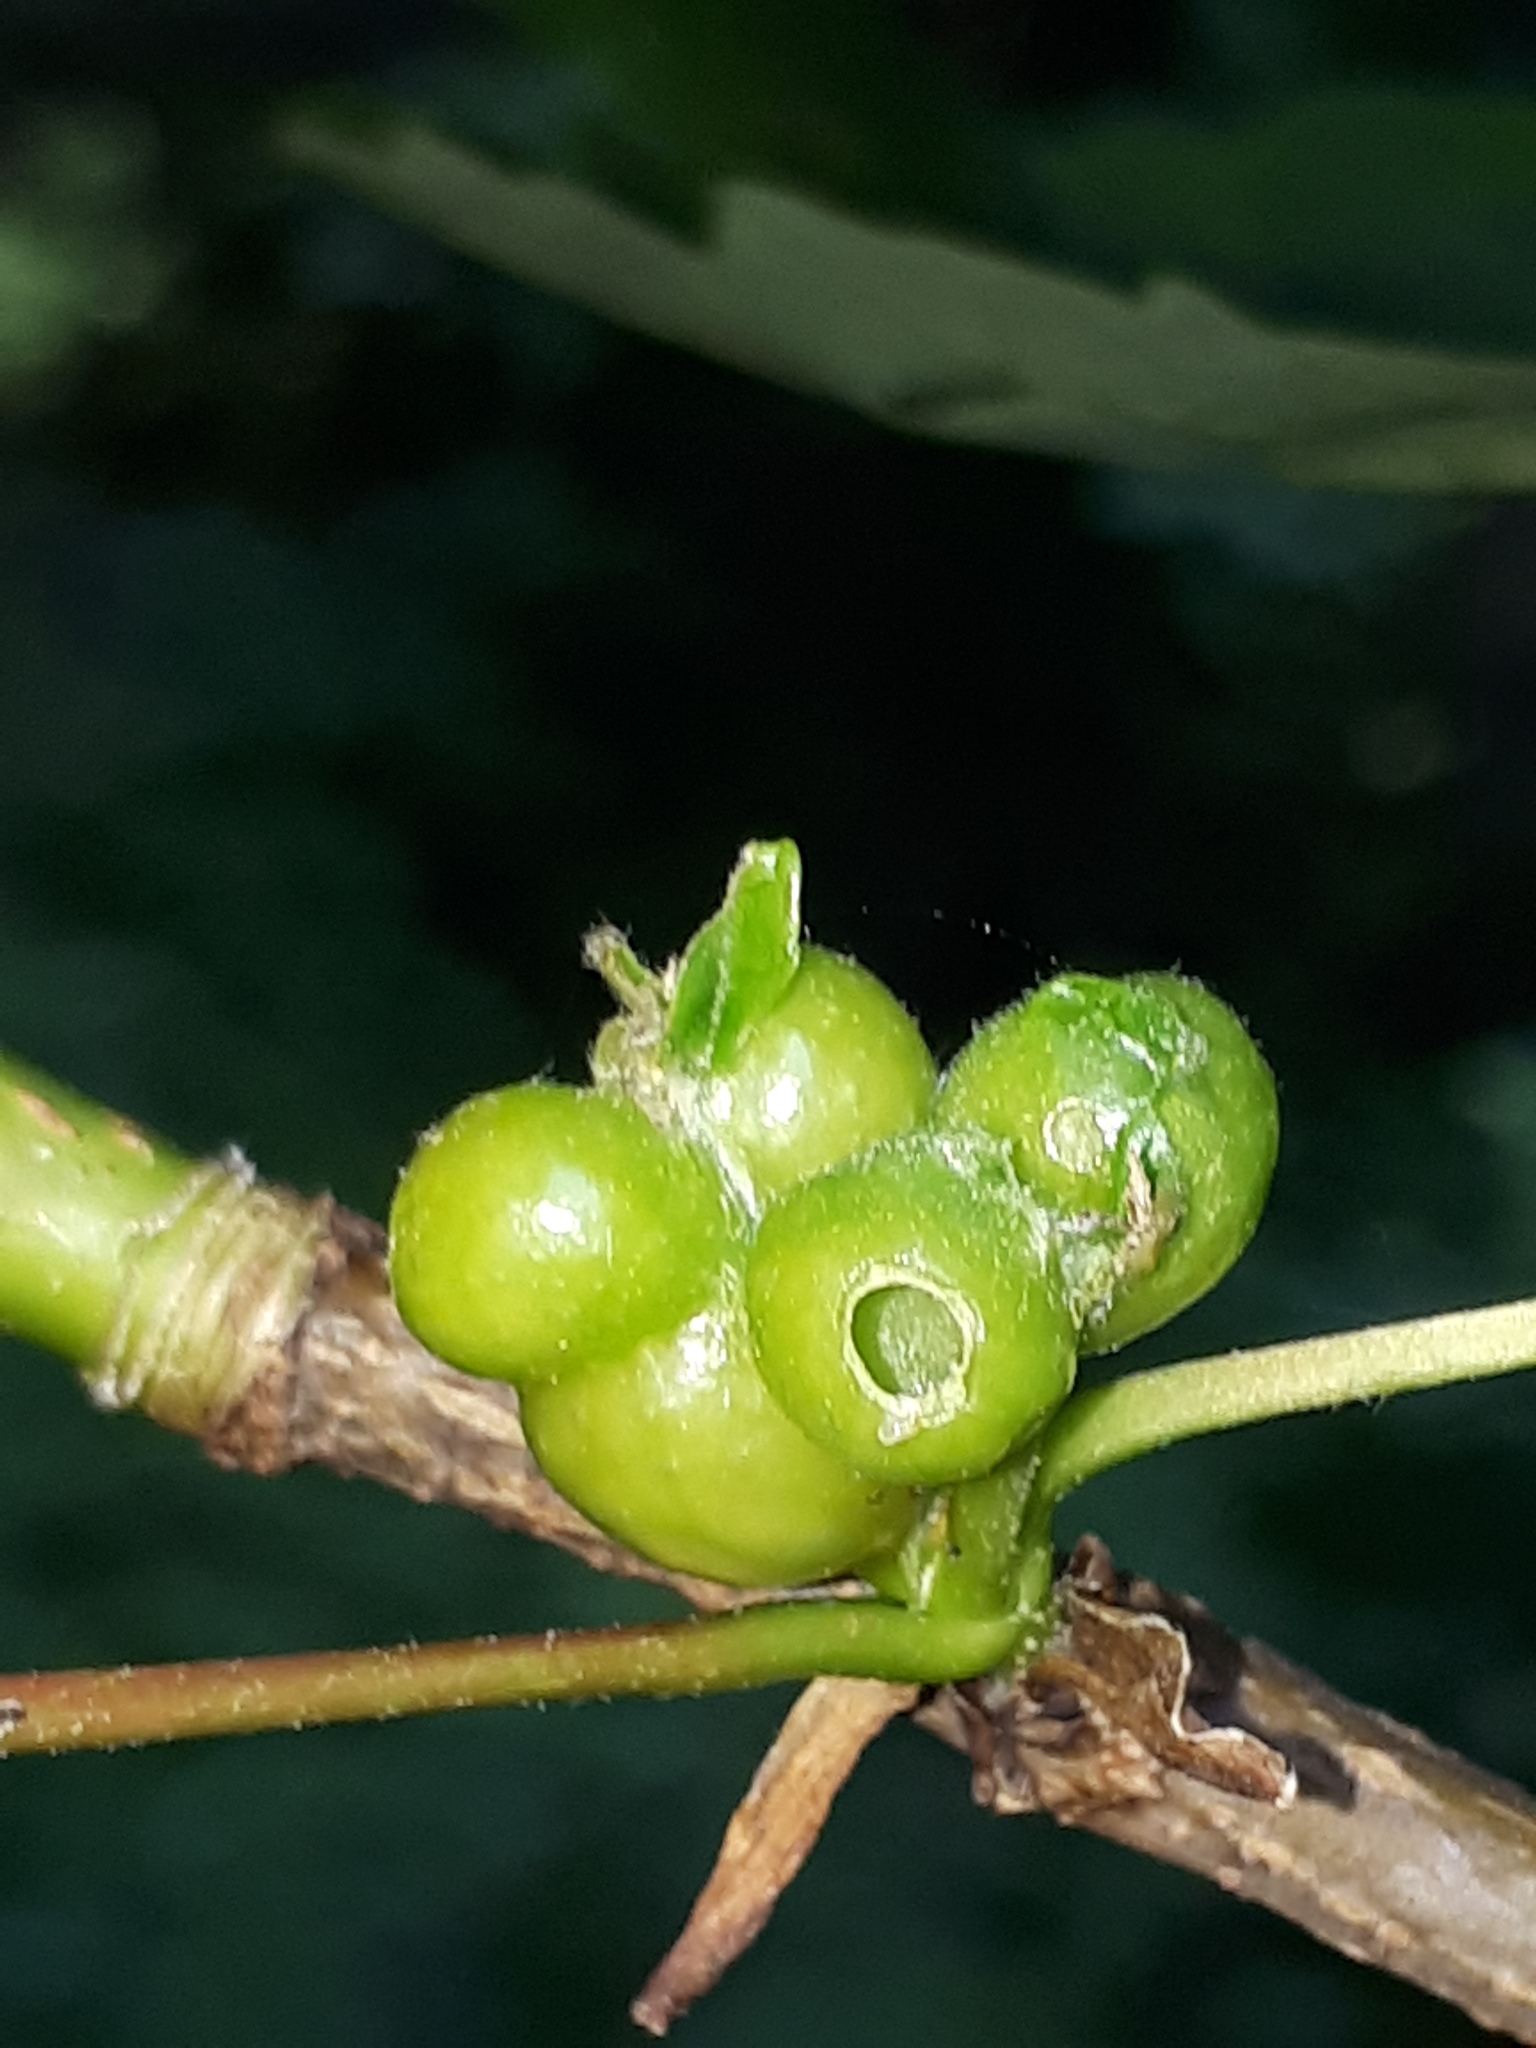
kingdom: Animalia
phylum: Arthropoda
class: Insecta
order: Hymenoptera
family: Cynipidae
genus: Pediaspis
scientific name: Pediaspis aceris
